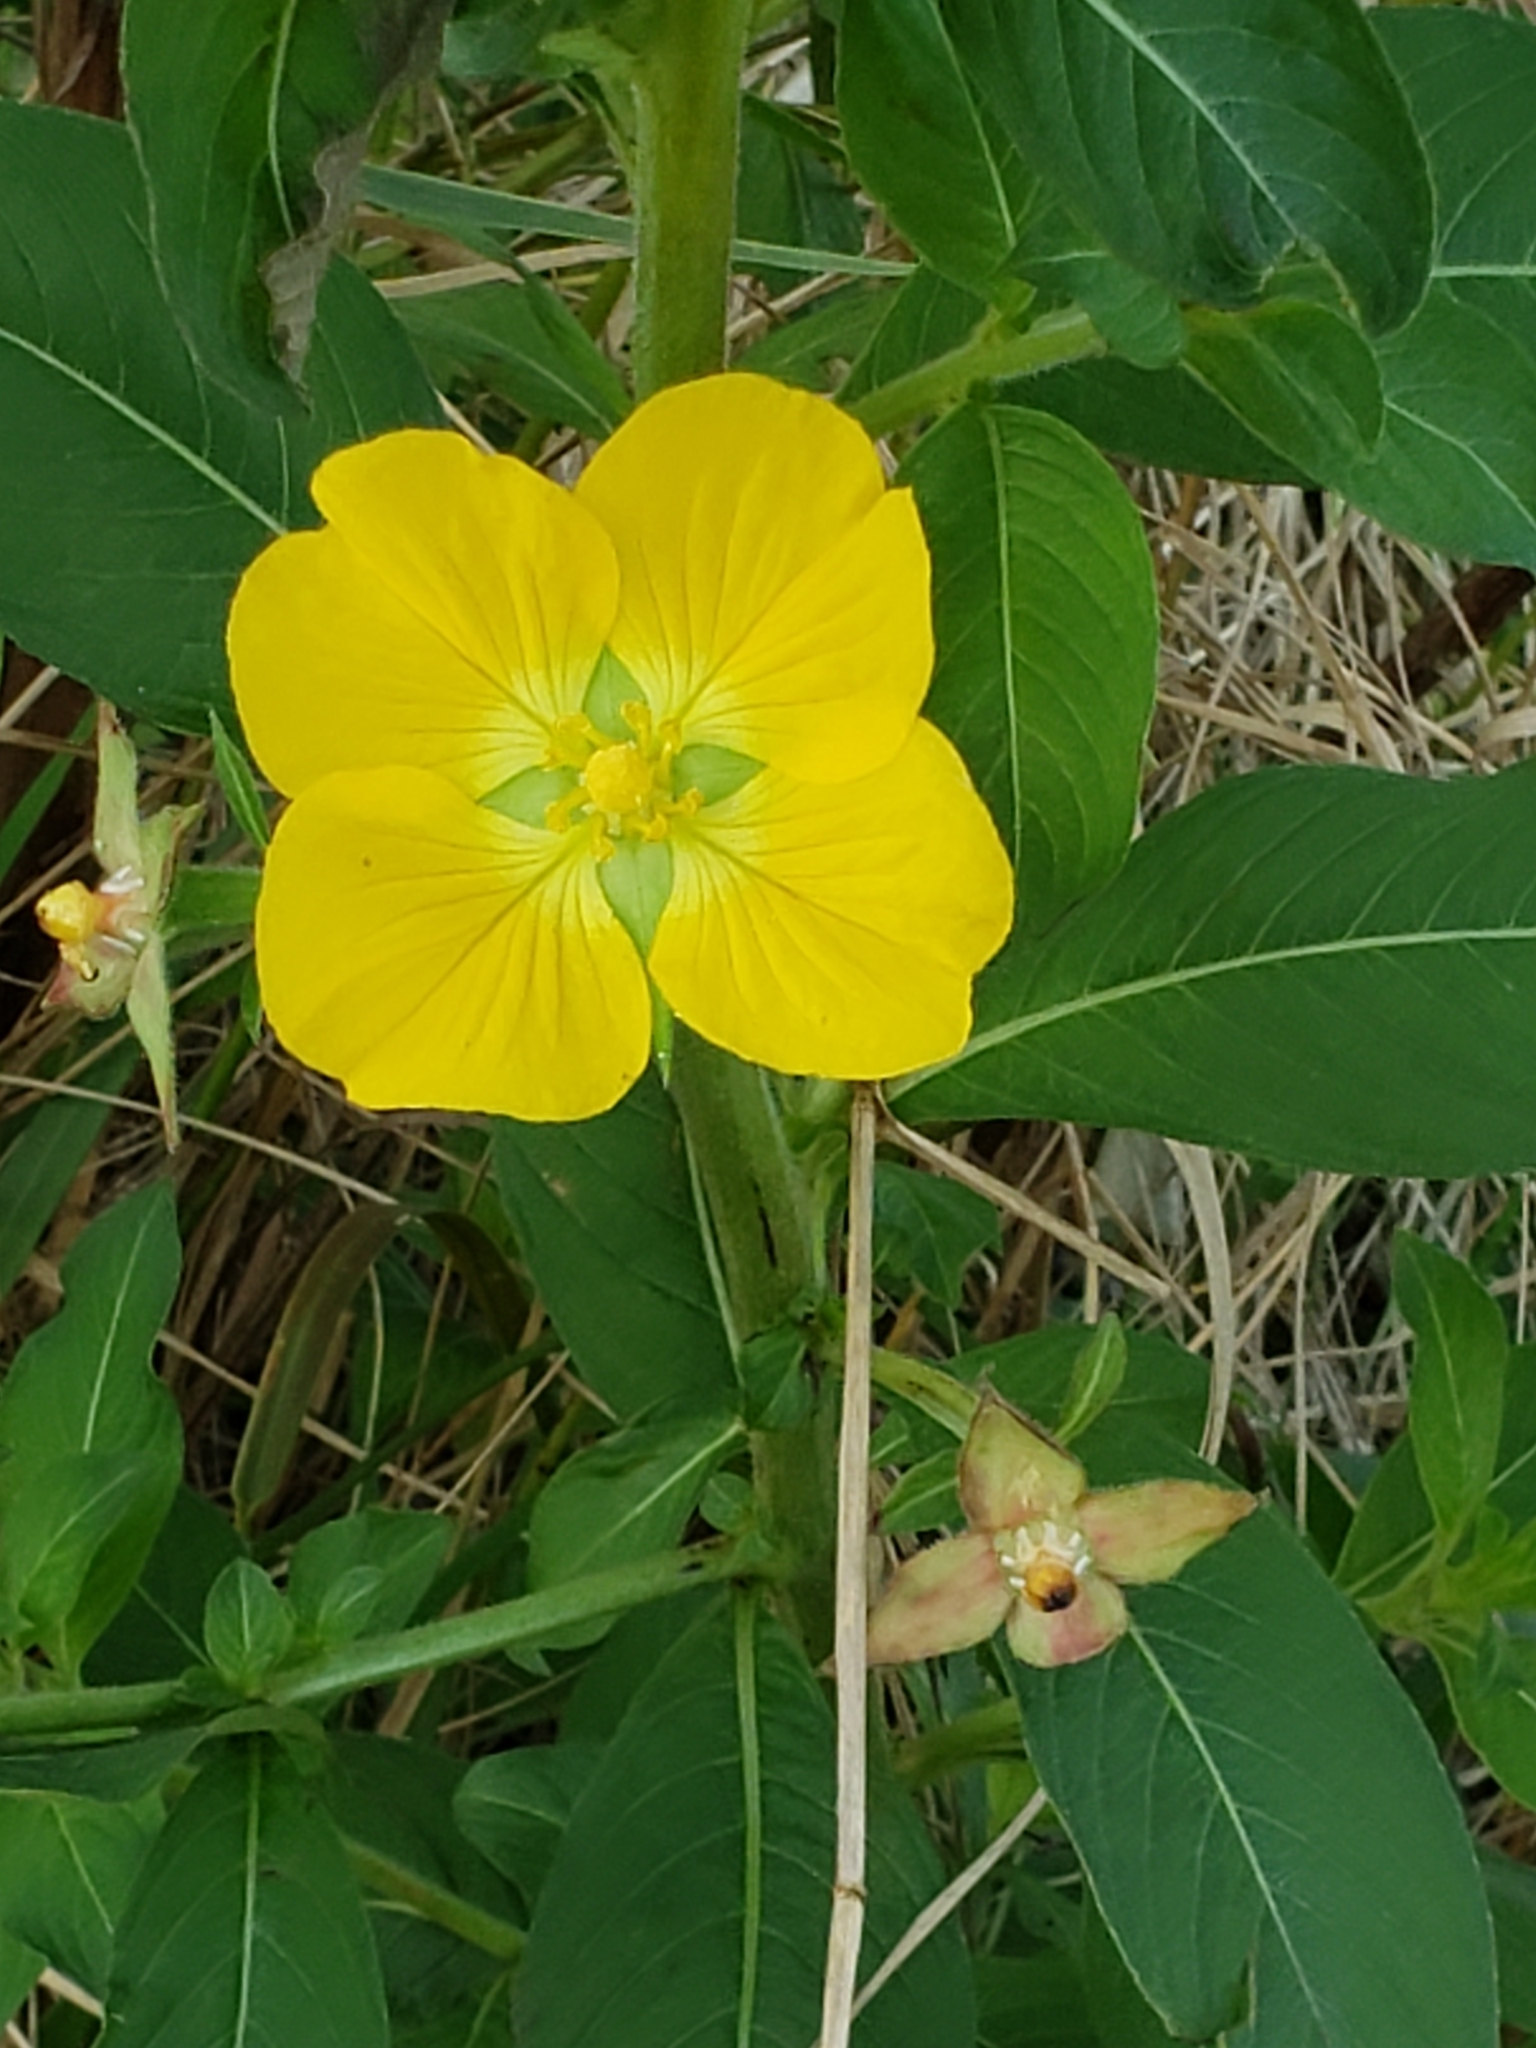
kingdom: Plantae
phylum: Tracheophyta
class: Magnoliopsida
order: Myrtales
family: Onagraceae
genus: Ludwigia
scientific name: Ludwigia peruviana
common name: Peruvian primrose-willow
